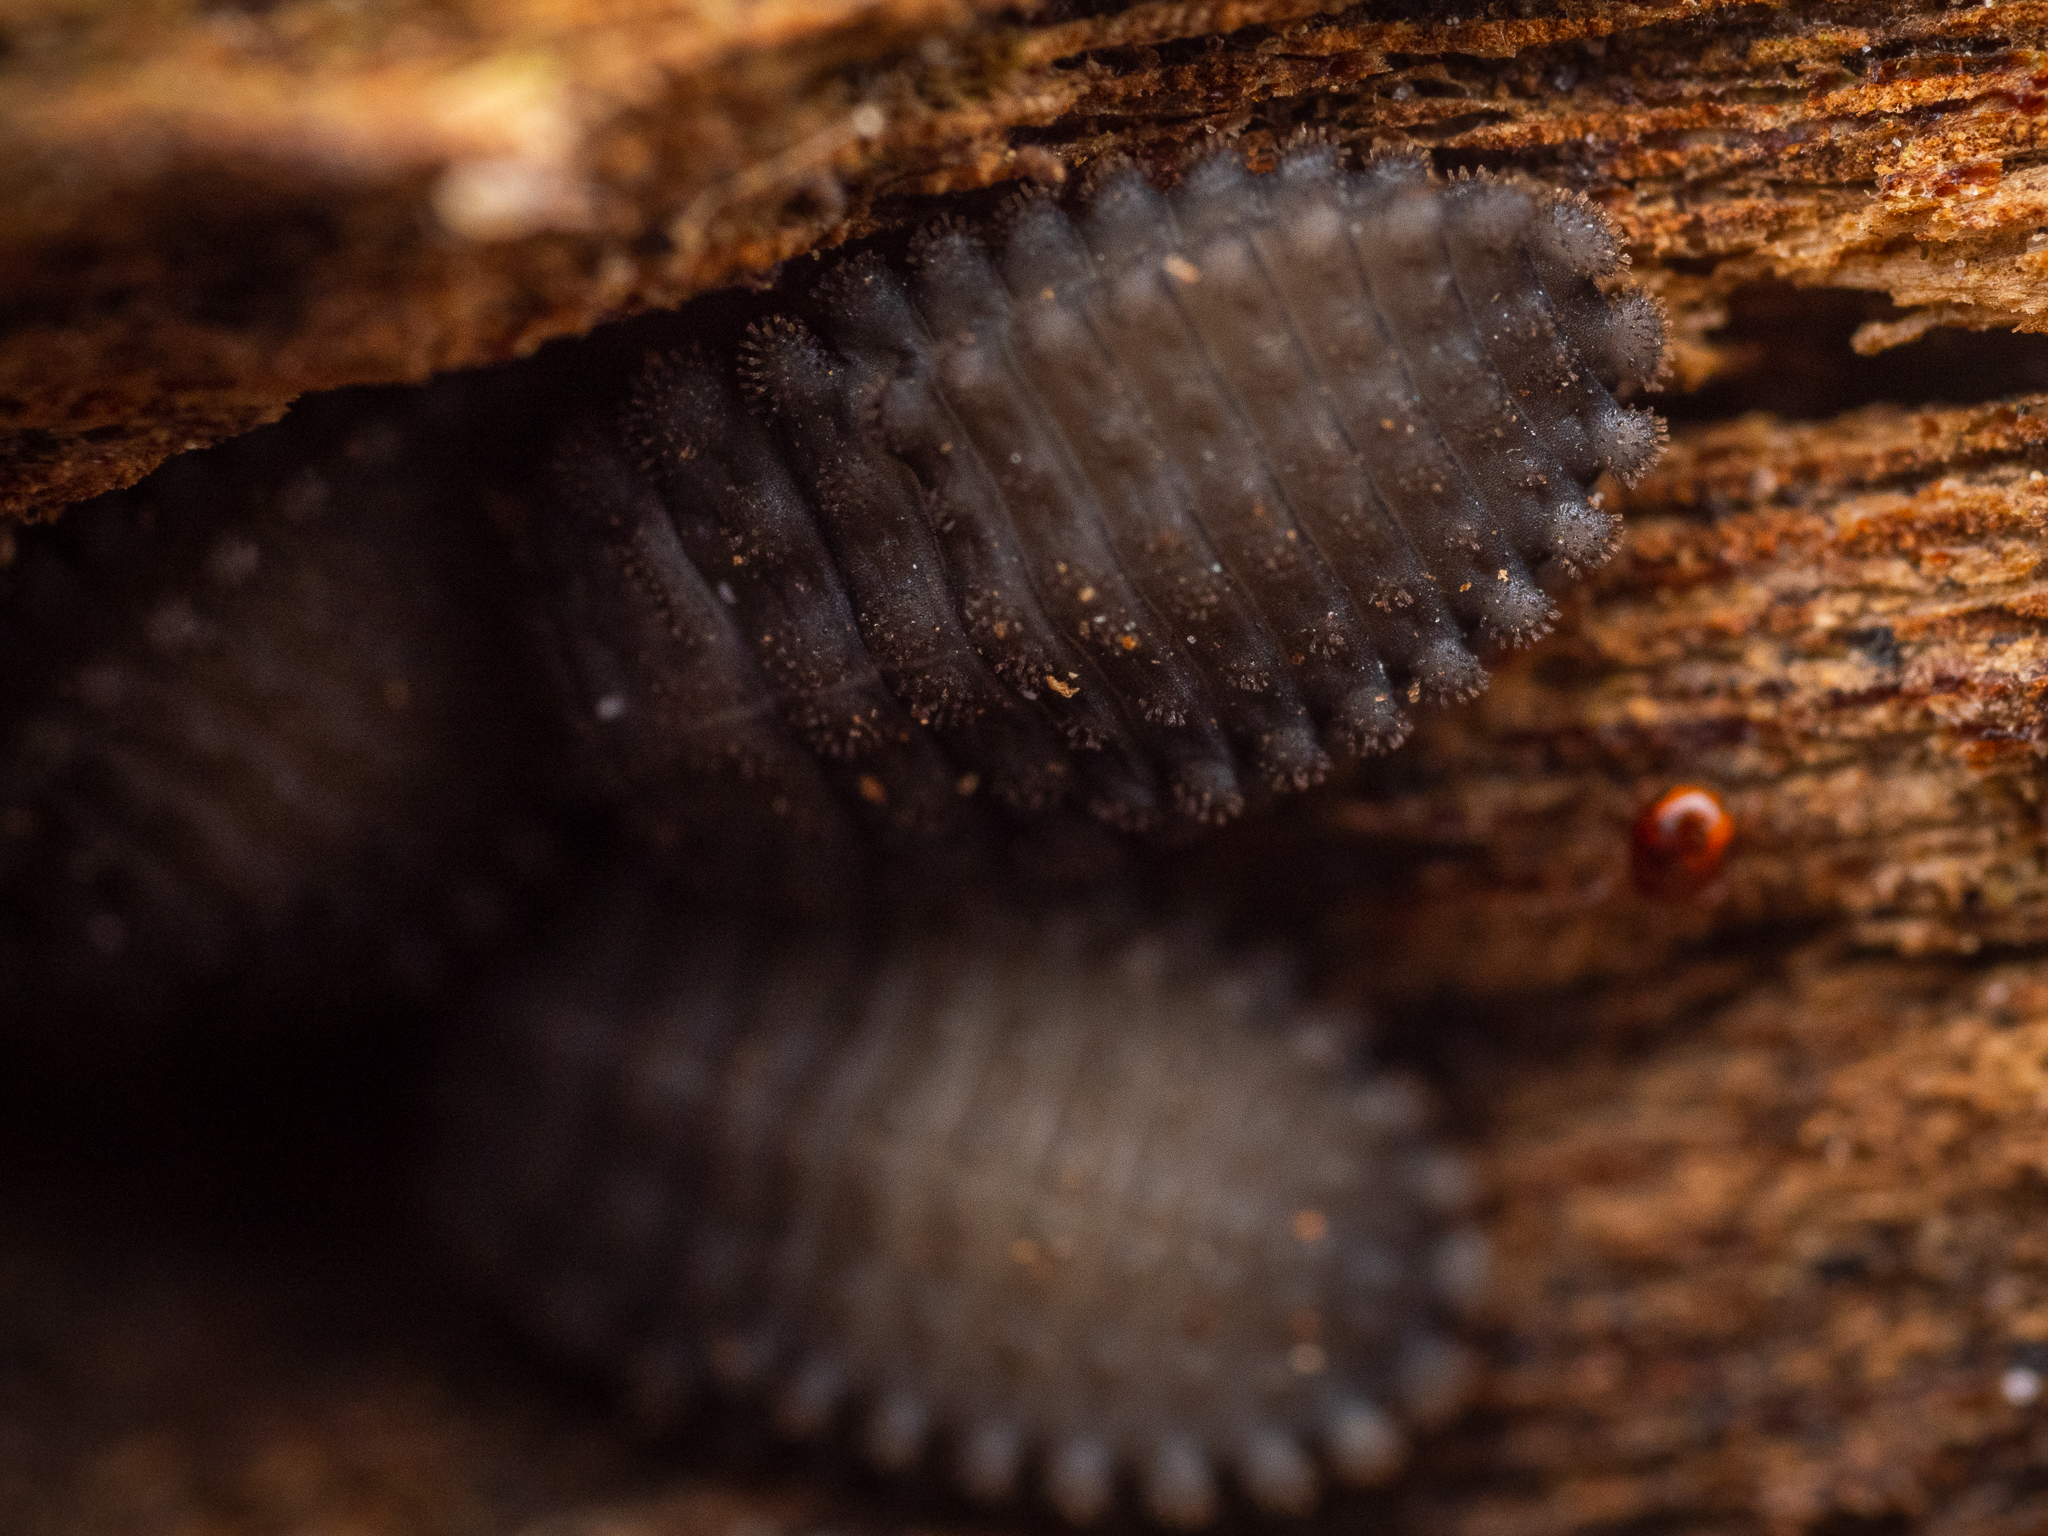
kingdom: Animalia
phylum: Arthropoda
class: Insecta
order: Coleoptera
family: Endomychidae
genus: Mycetina
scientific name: Mycetina cruciata
